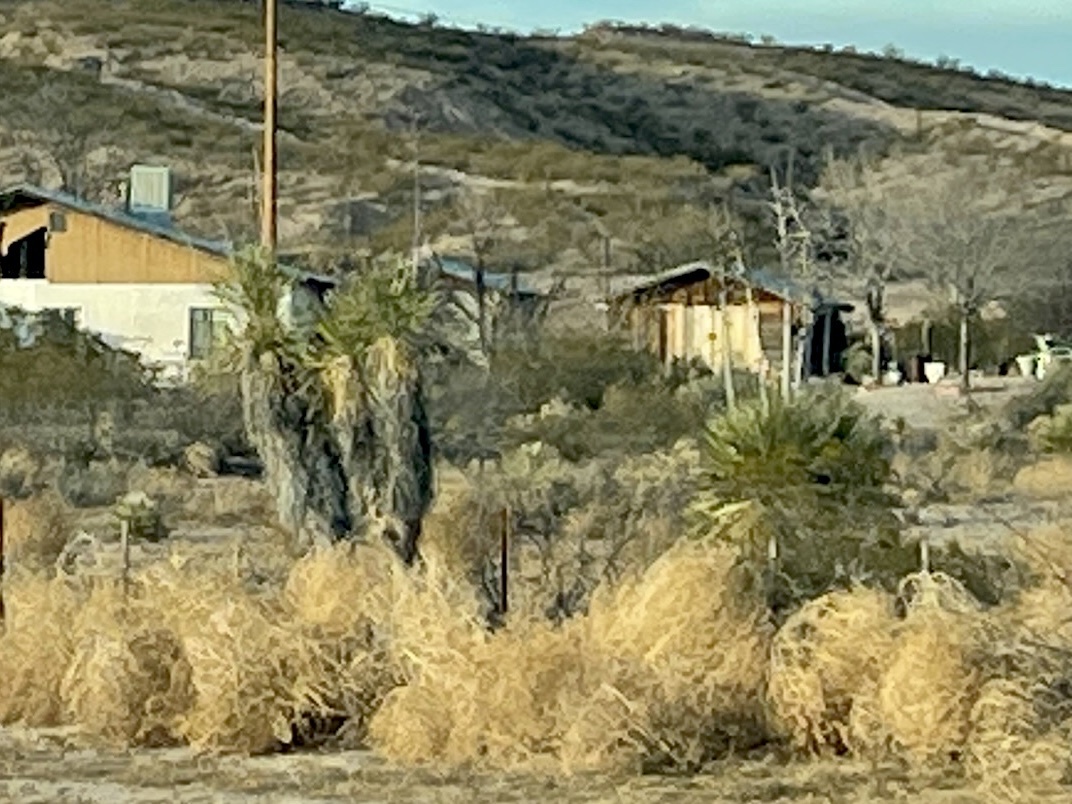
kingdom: Plantae
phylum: Tracheophyta
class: Liliopsida
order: Asparagales
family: Asparagaceae
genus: Yucca
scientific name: Yucca elata
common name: Palmella
